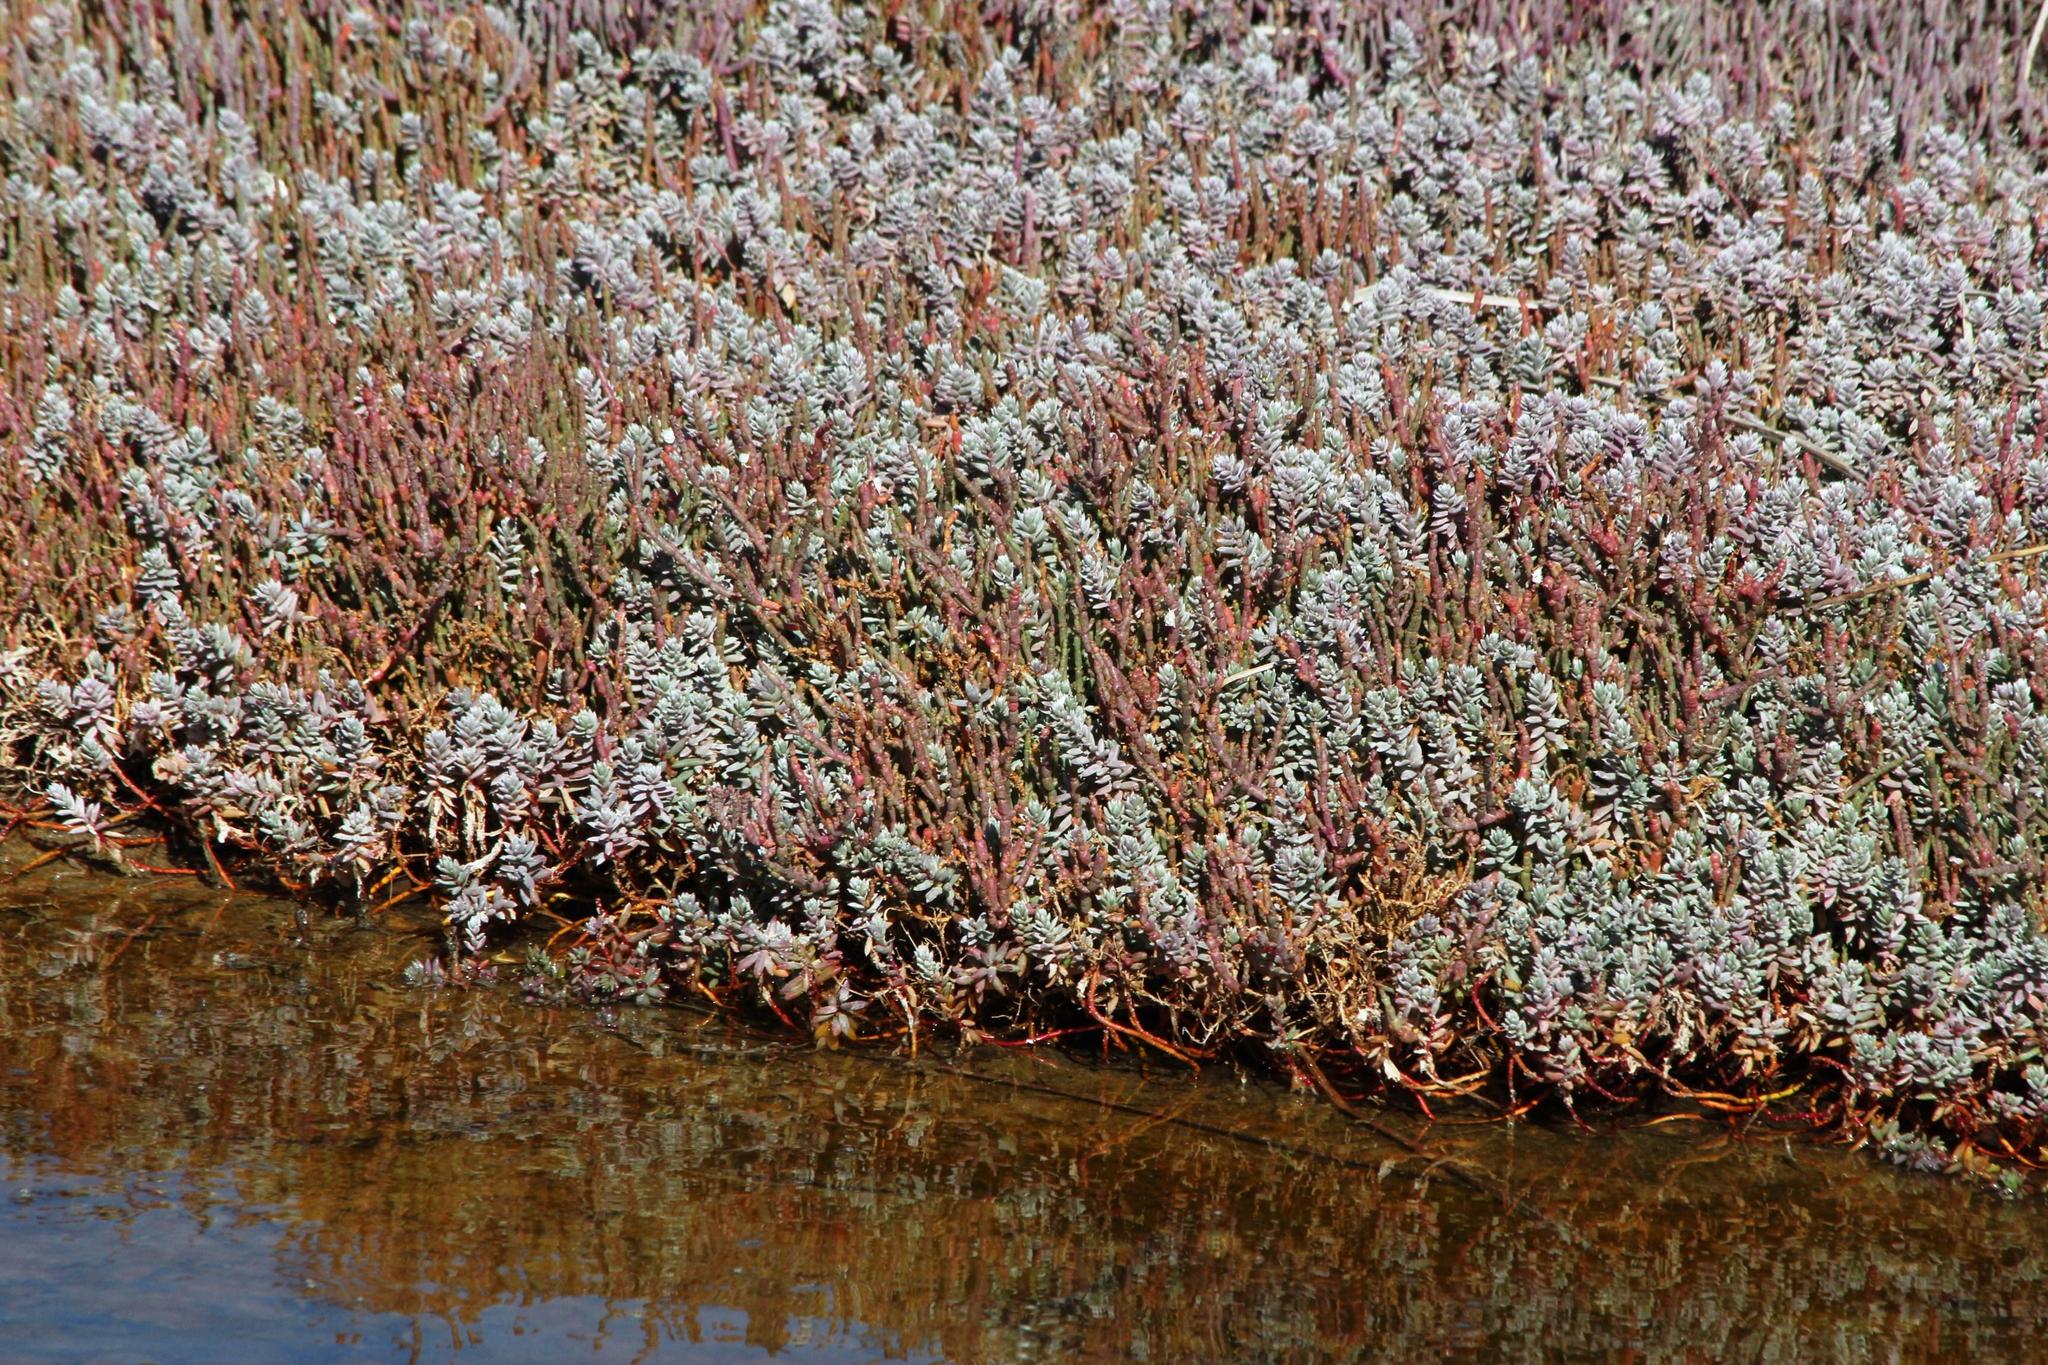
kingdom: Plantae
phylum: Tracheophyta
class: Magnoliopsida
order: Caryophyllales
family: Amaranthaceae
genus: Chenolea
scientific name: Chenolea diffusa
